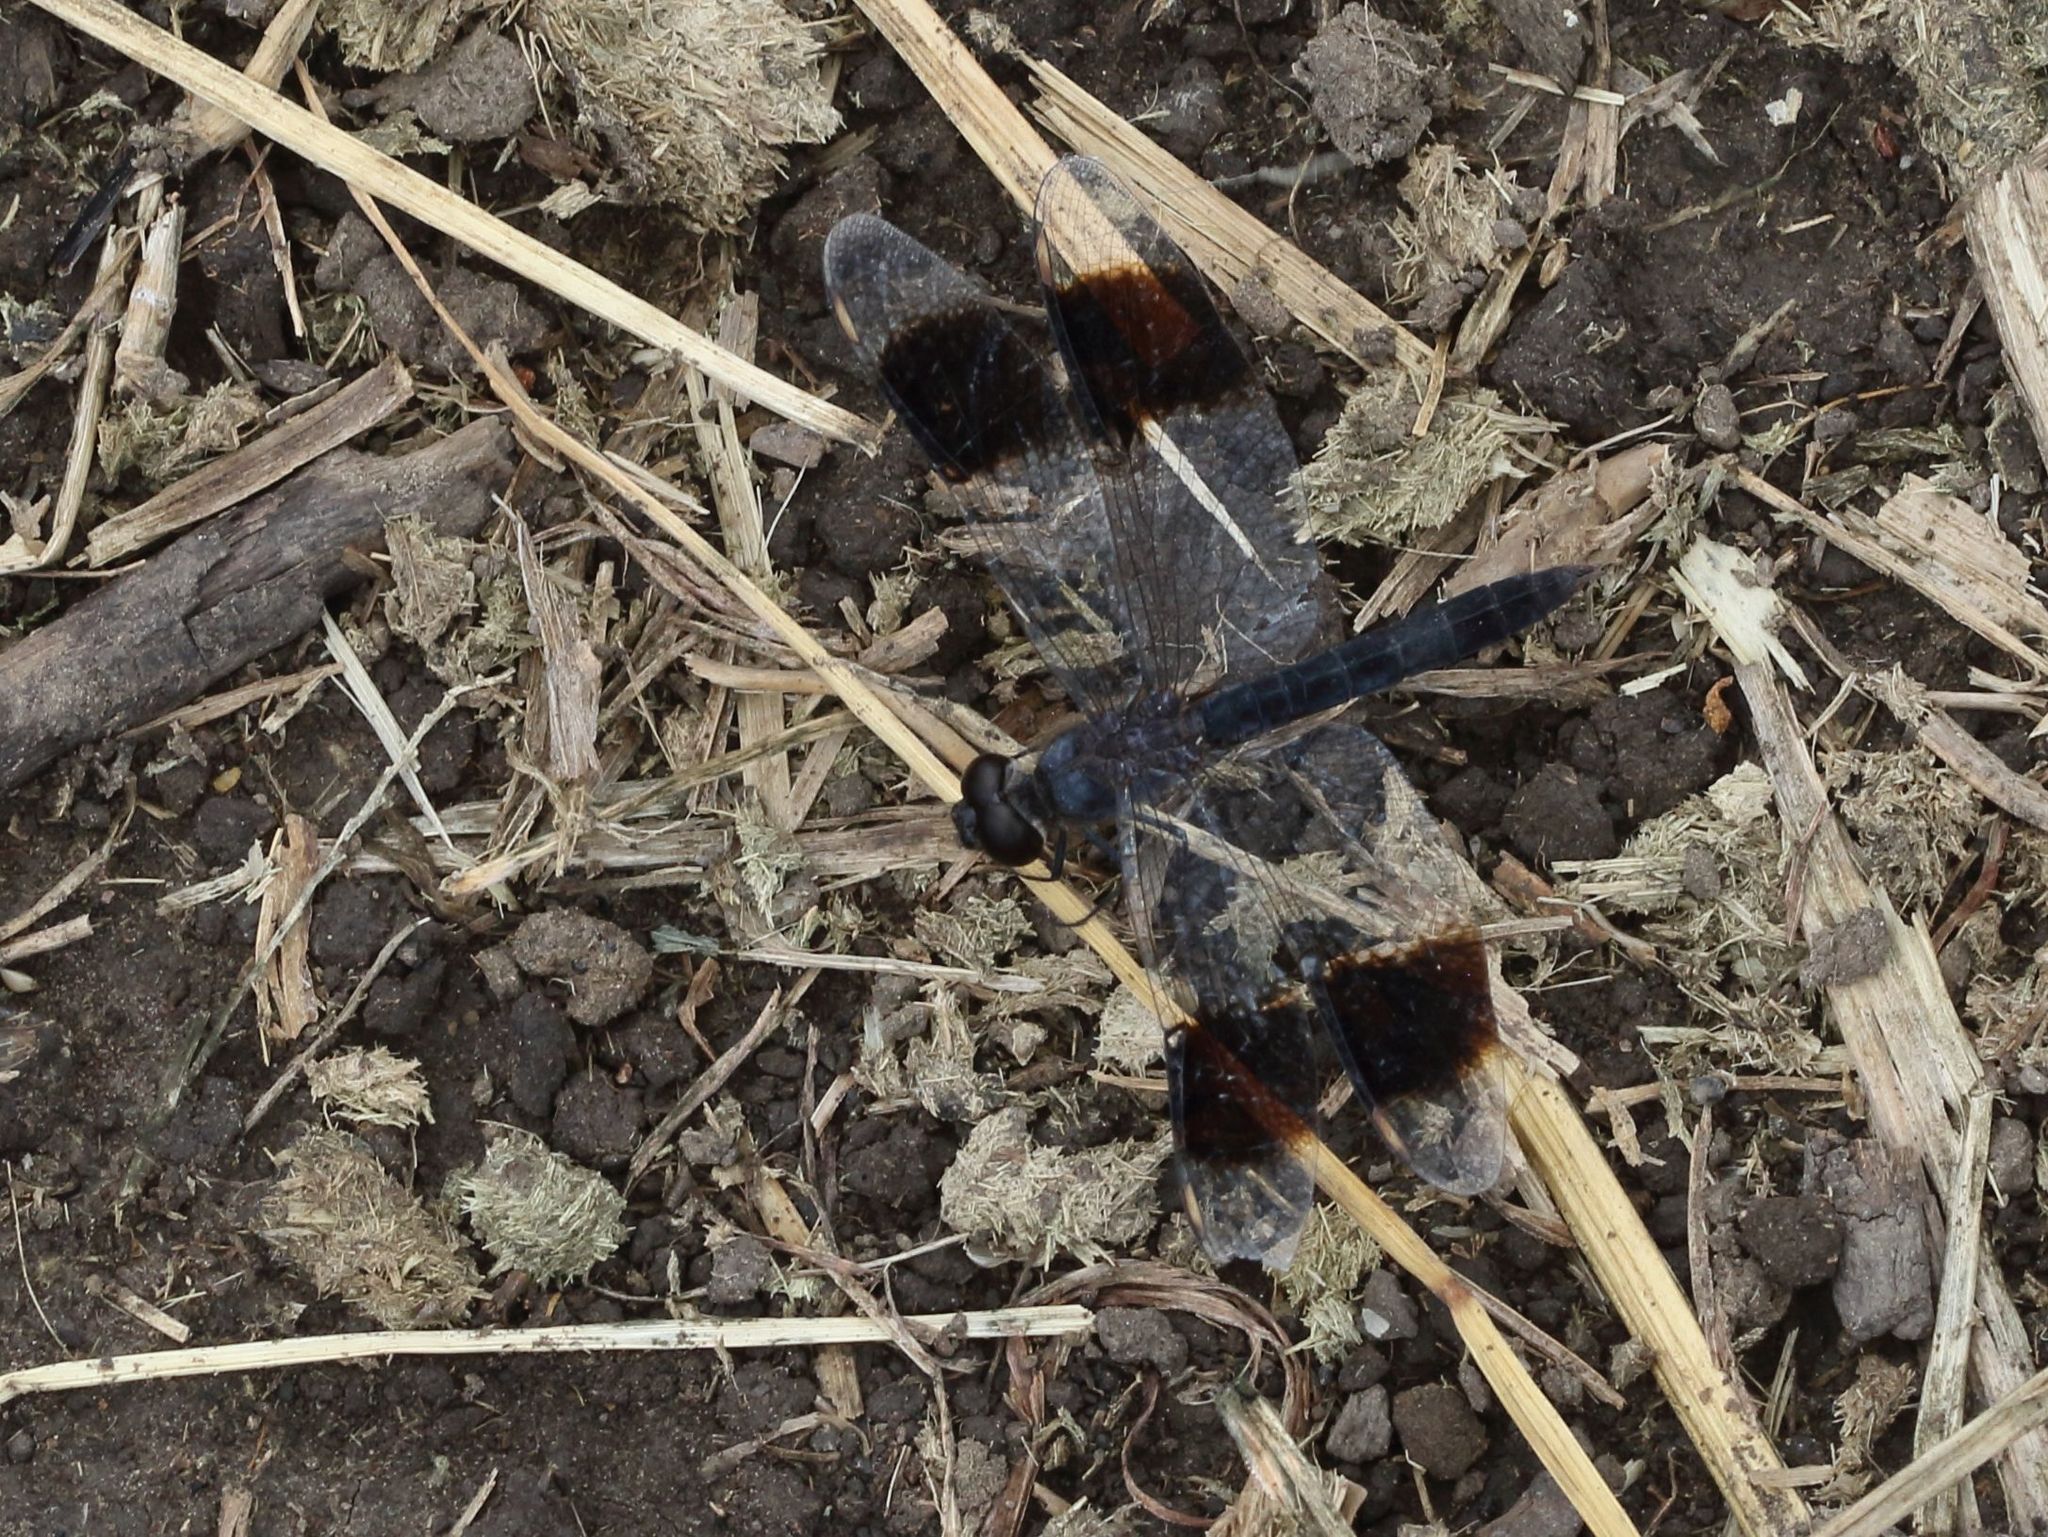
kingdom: Animalia
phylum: Arthropoda
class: Insecta
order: Odonata
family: Libellulidae
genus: Brachythemis
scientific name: Brachythemis leucosticta
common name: Banded groundling
